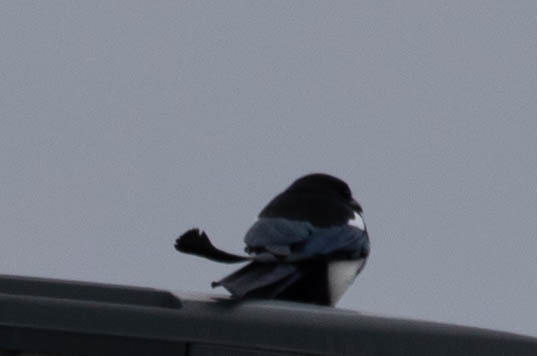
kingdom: Animalia
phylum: Chordata
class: Aves
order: Passeriformes
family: Corvidae
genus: Pica
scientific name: Pica hudsonia
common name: Black-billed magpie
